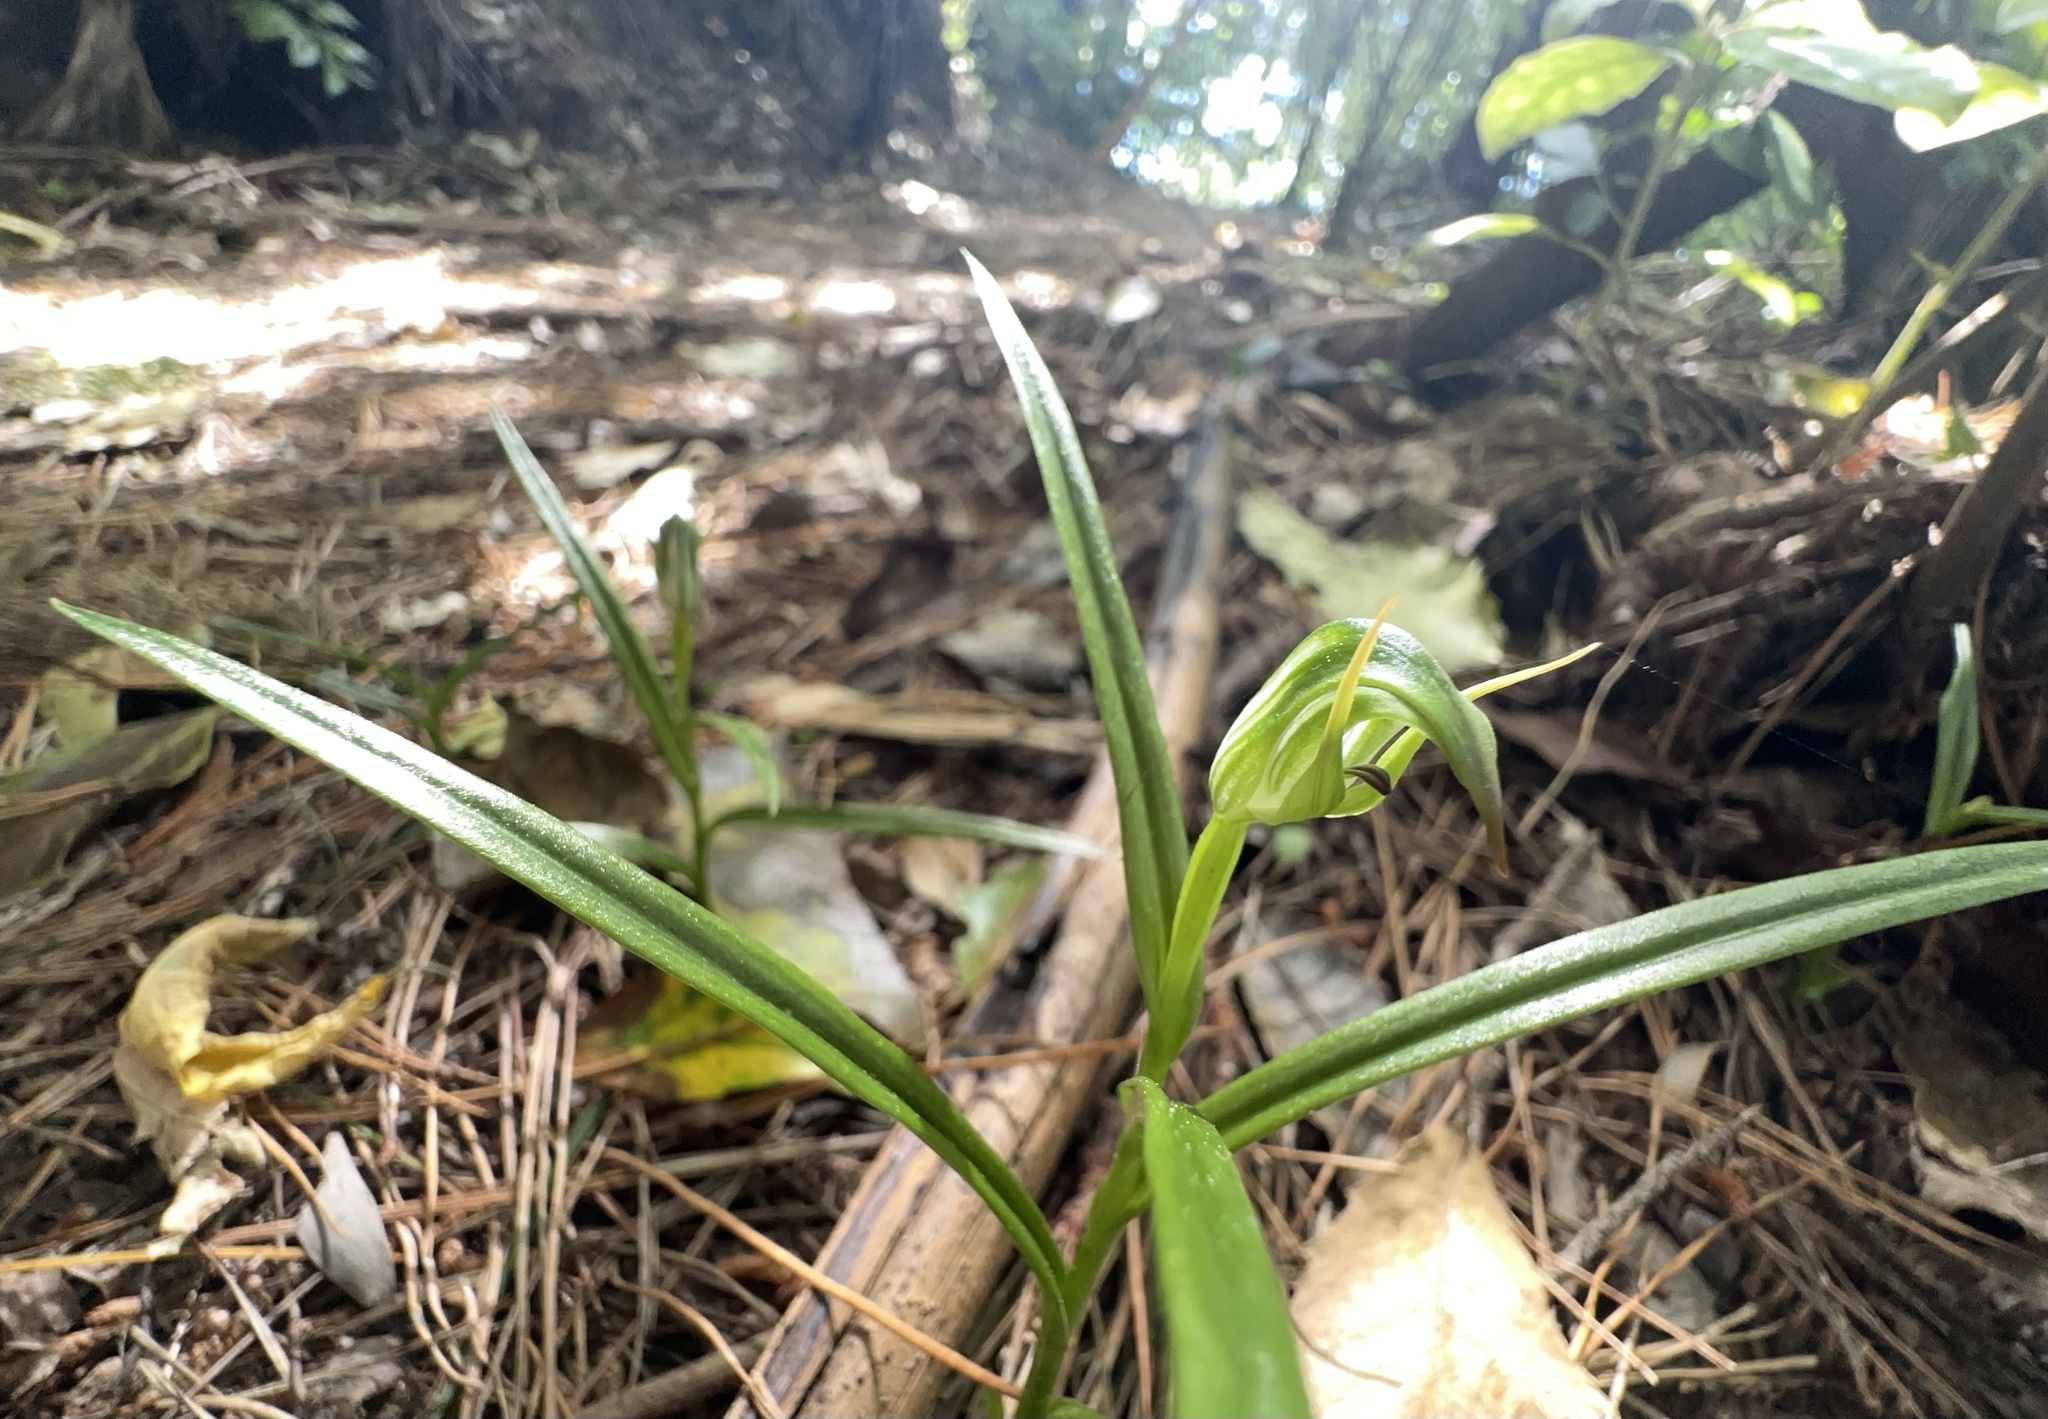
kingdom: Plantae
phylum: Tracheophyta
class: Liliopsida
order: Asparagales
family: Orchidaceae
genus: Pterostylis
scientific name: Pterostylis graminea
